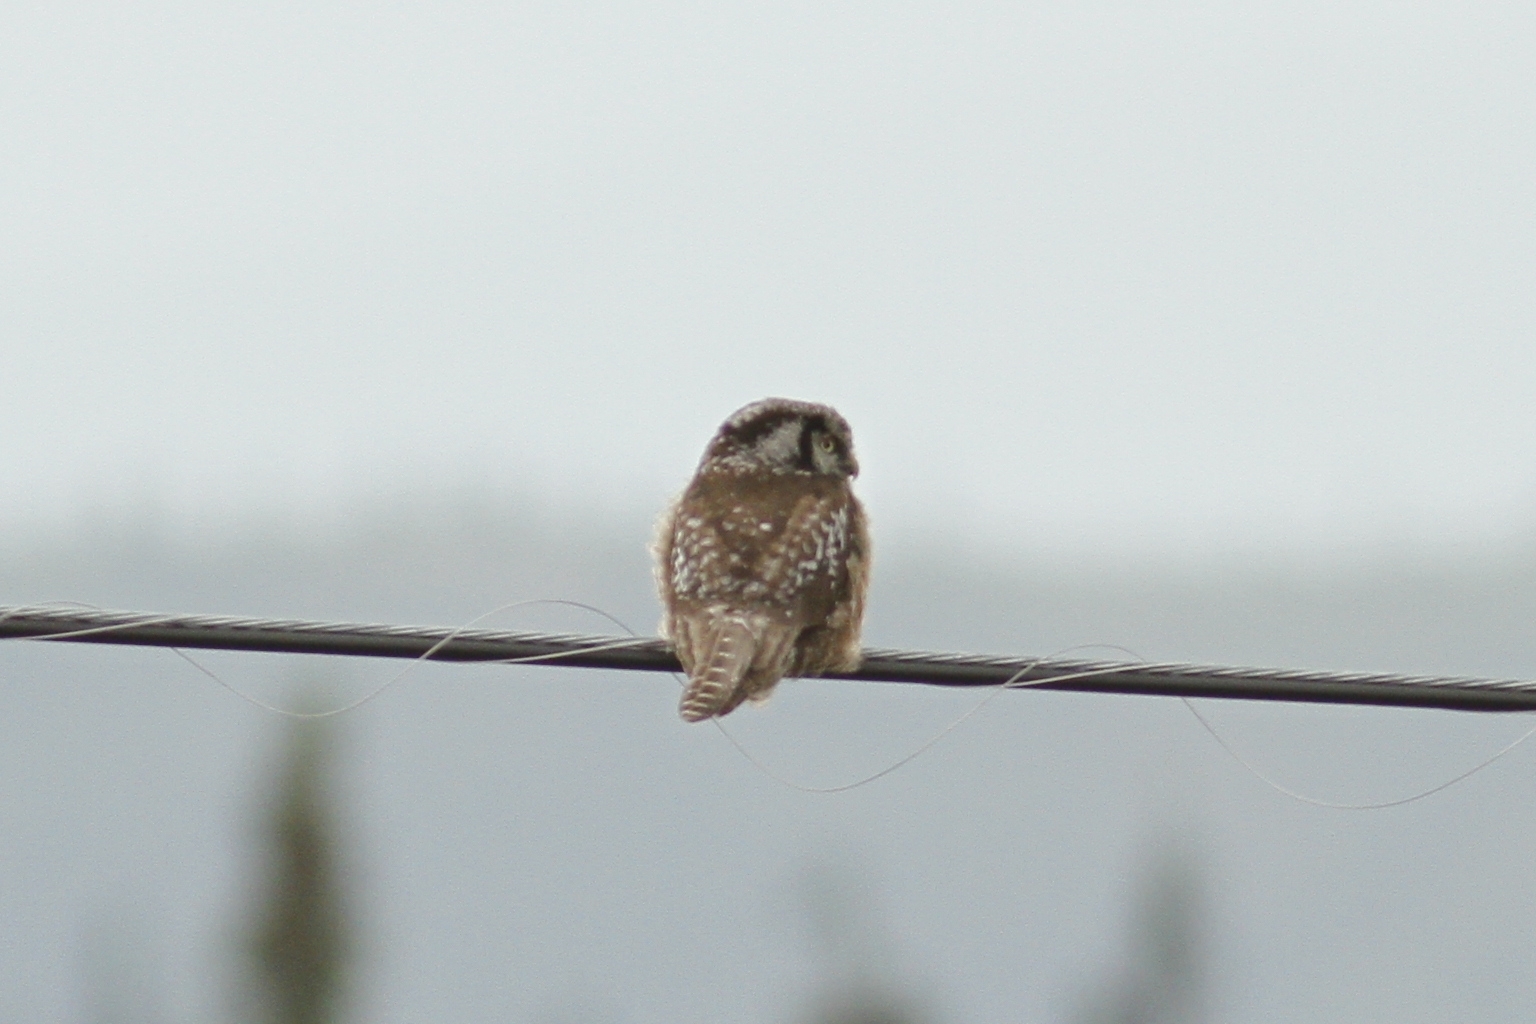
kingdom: Animalia
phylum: Chordata
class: Aves
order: Strigiformes
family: Strigidae
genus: Surnia
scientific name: Surnia ulula
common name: Northern hawk-owl
